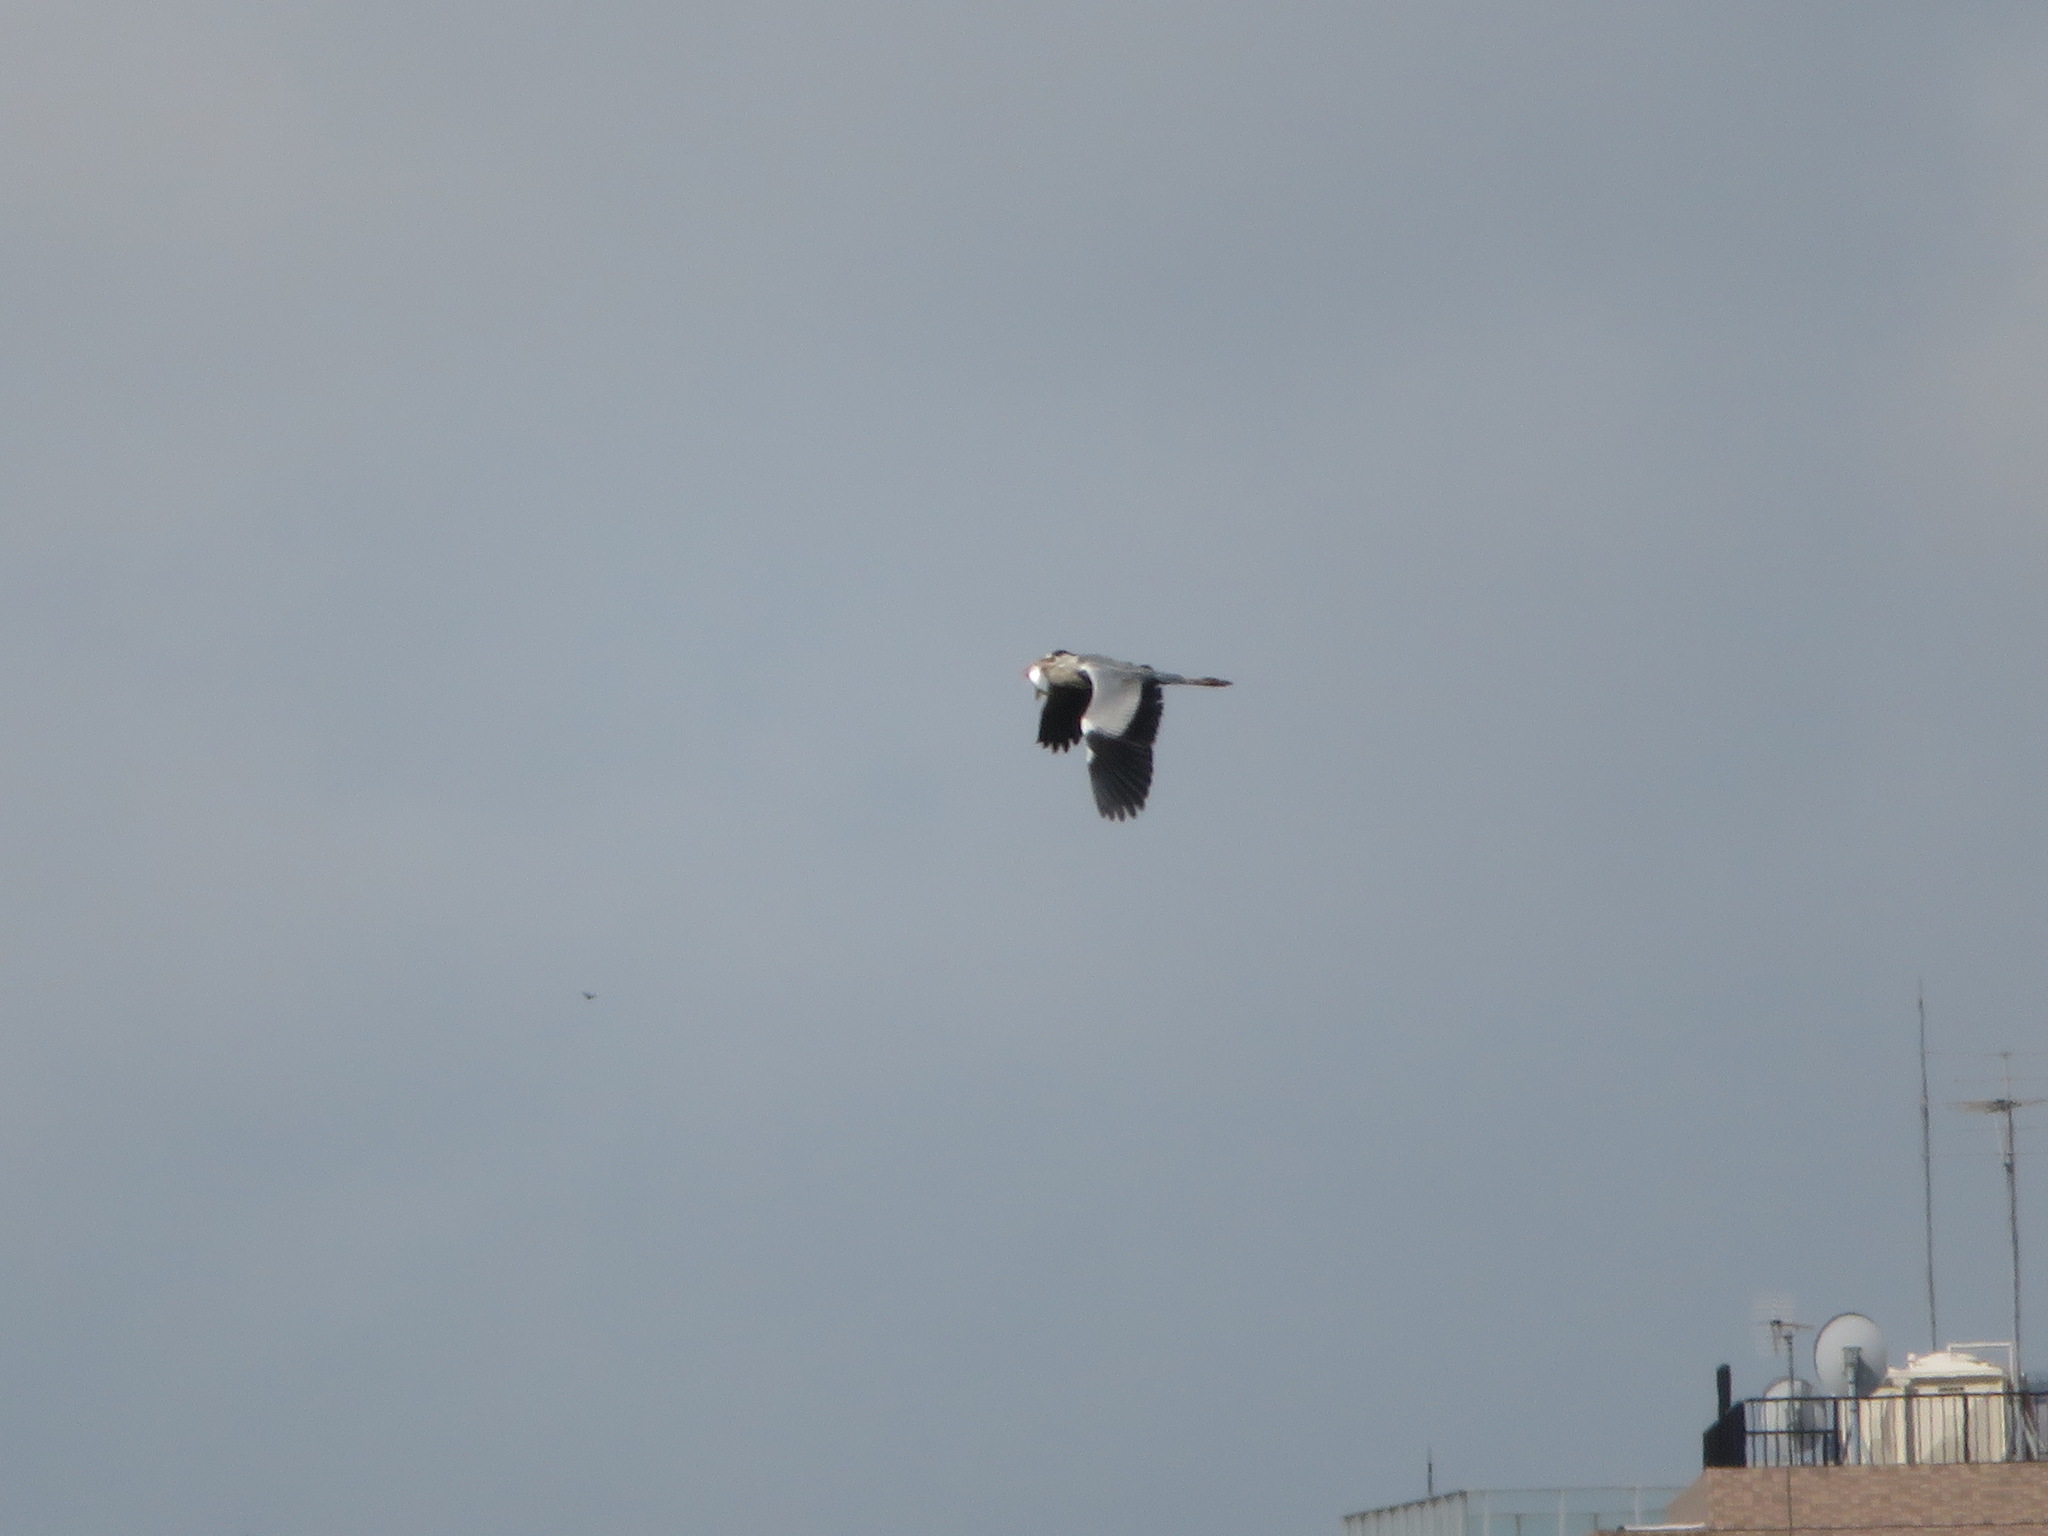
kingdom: Animalia
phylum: Chordata
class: Aves
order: Pelecaniformes
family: Ardeidae
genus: Ardea
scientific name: Ardea cinerea
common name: Grey heron
